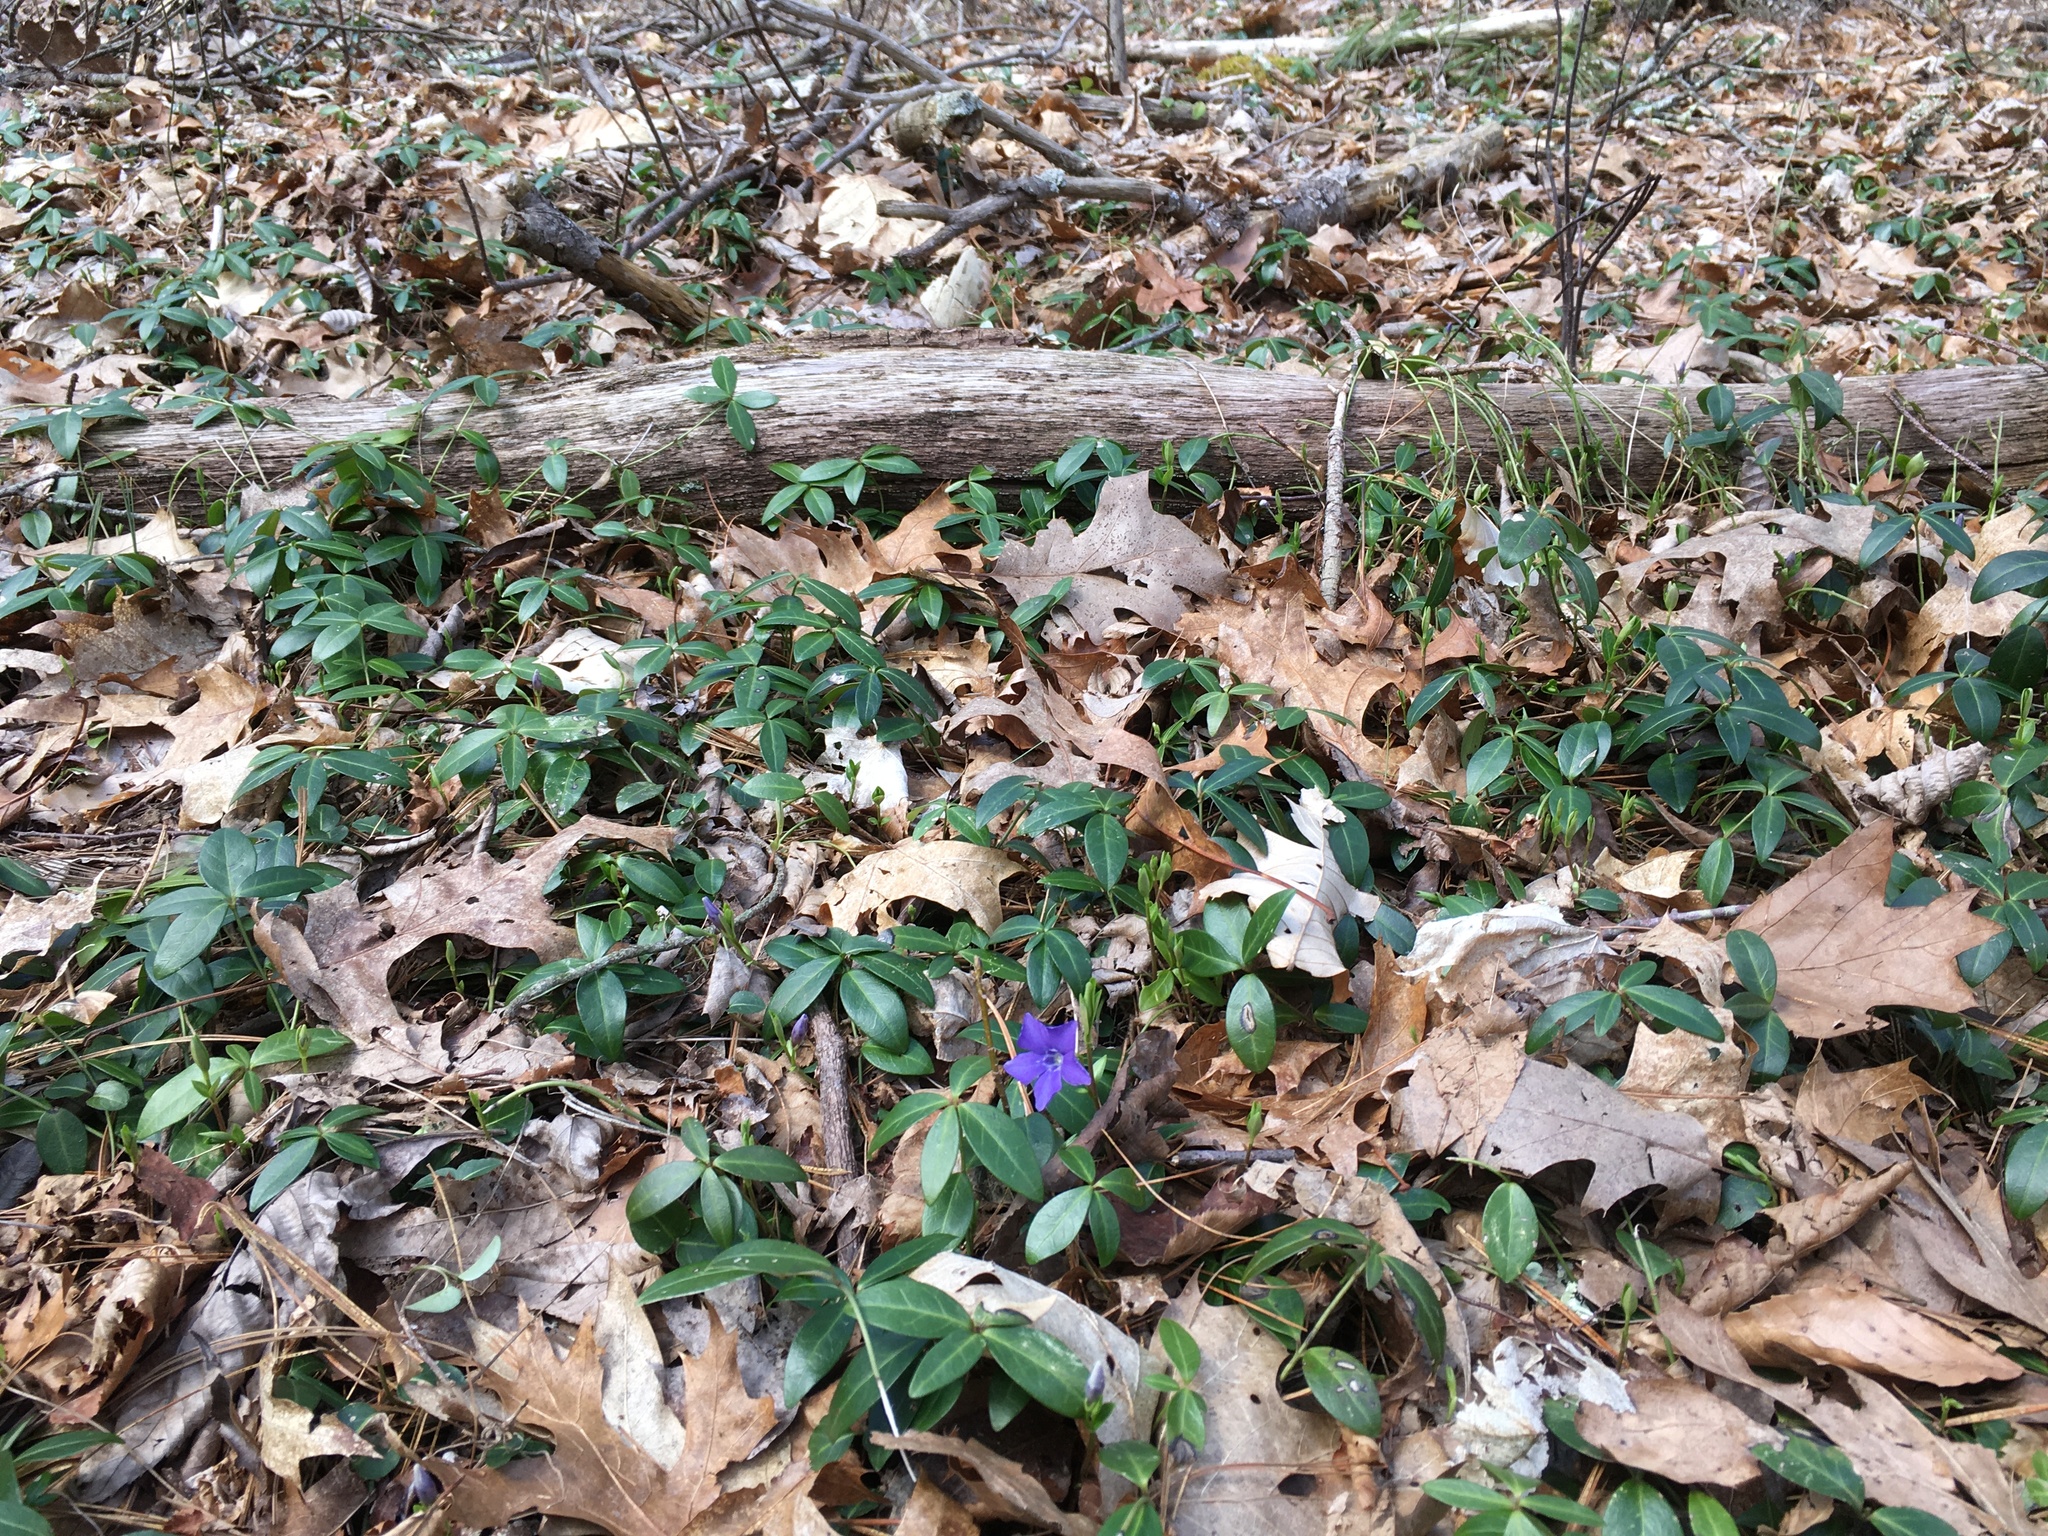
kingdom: Plantae
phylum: Tracheophyta
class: Magnoliopsida
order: Gentianales
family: Apocynaceae
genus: Vinca
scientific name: Vinca minor
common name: Lesser periwinkle
